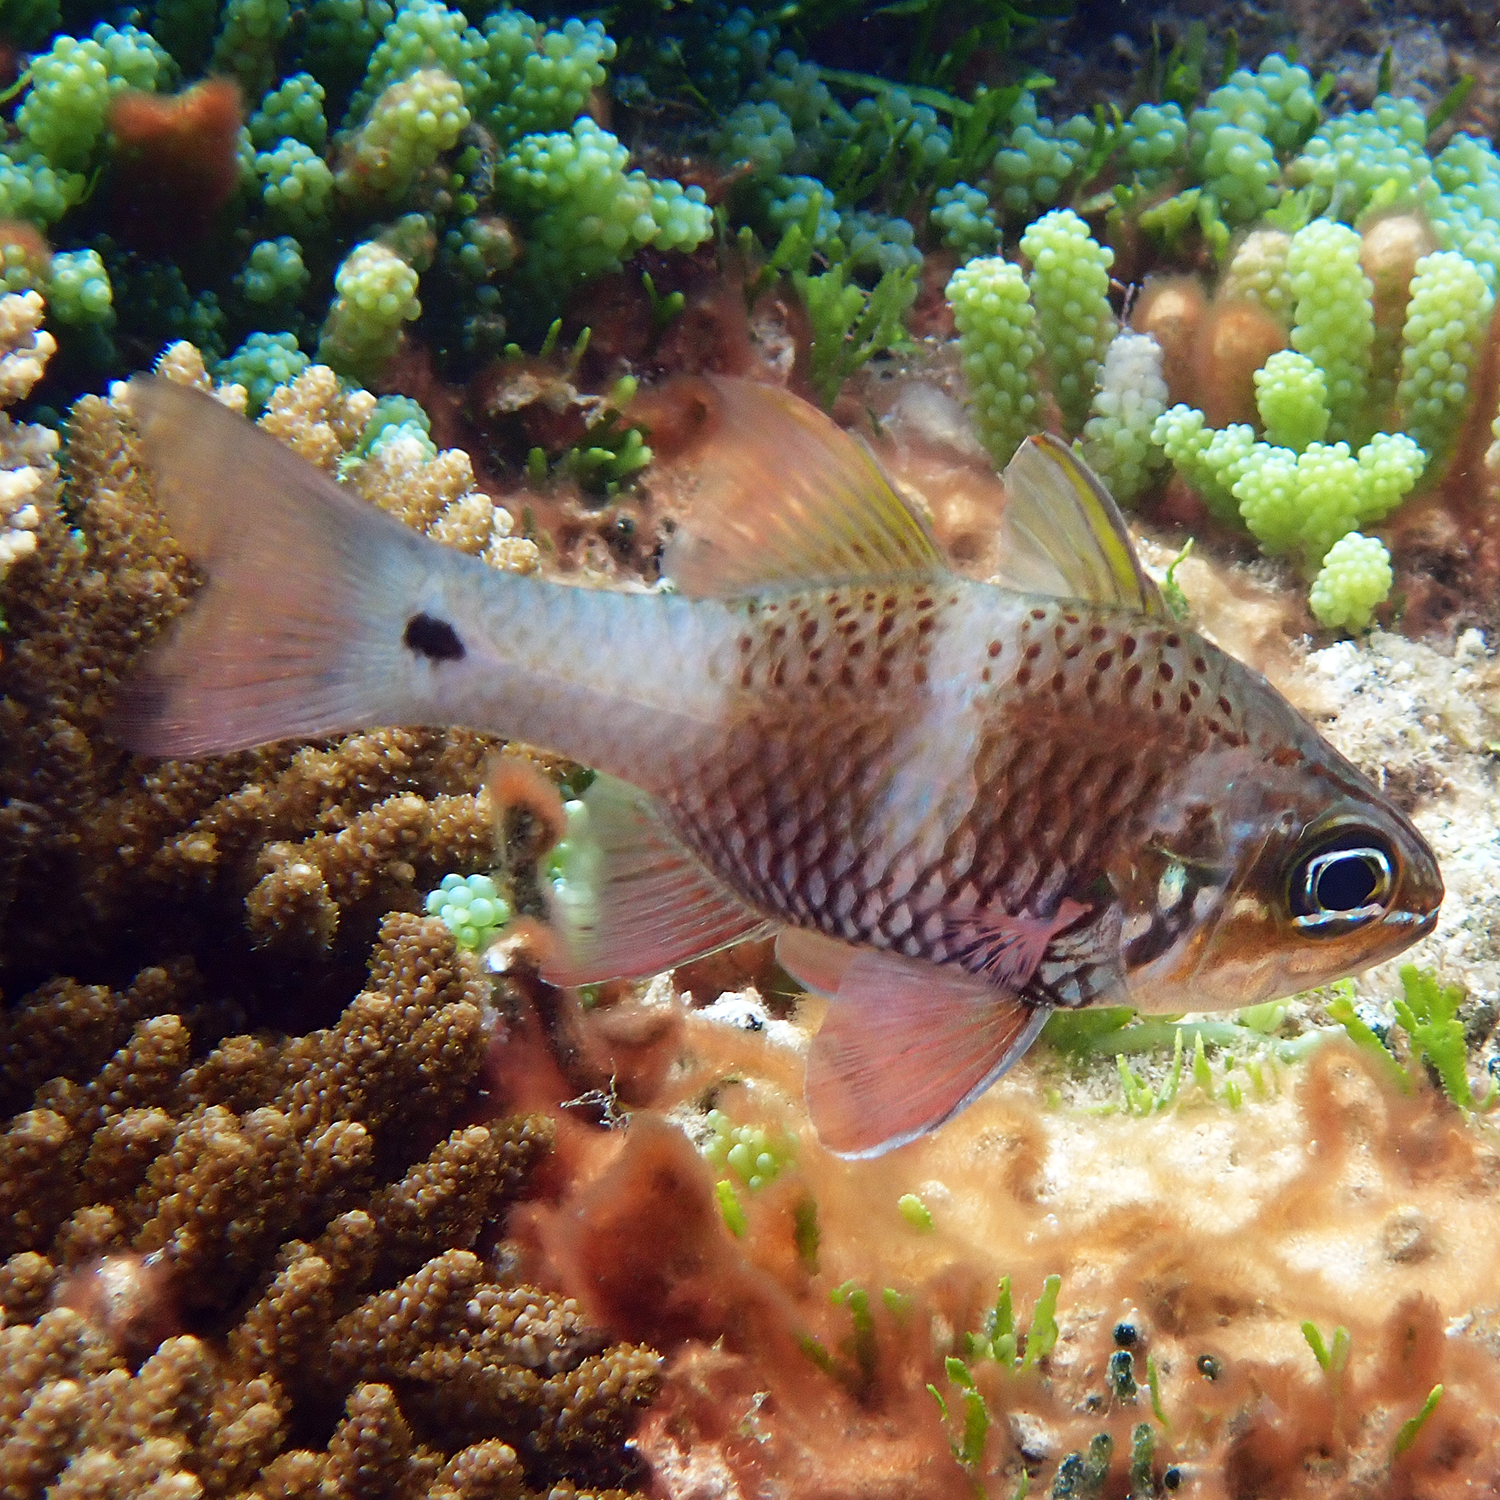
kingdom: Animalia
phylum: Chordata
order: Perciformes
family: Apogonidae
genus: Ostorhinchus
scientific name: Ostorhinchus norfolcensis
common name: Norfolk cardinalfish
